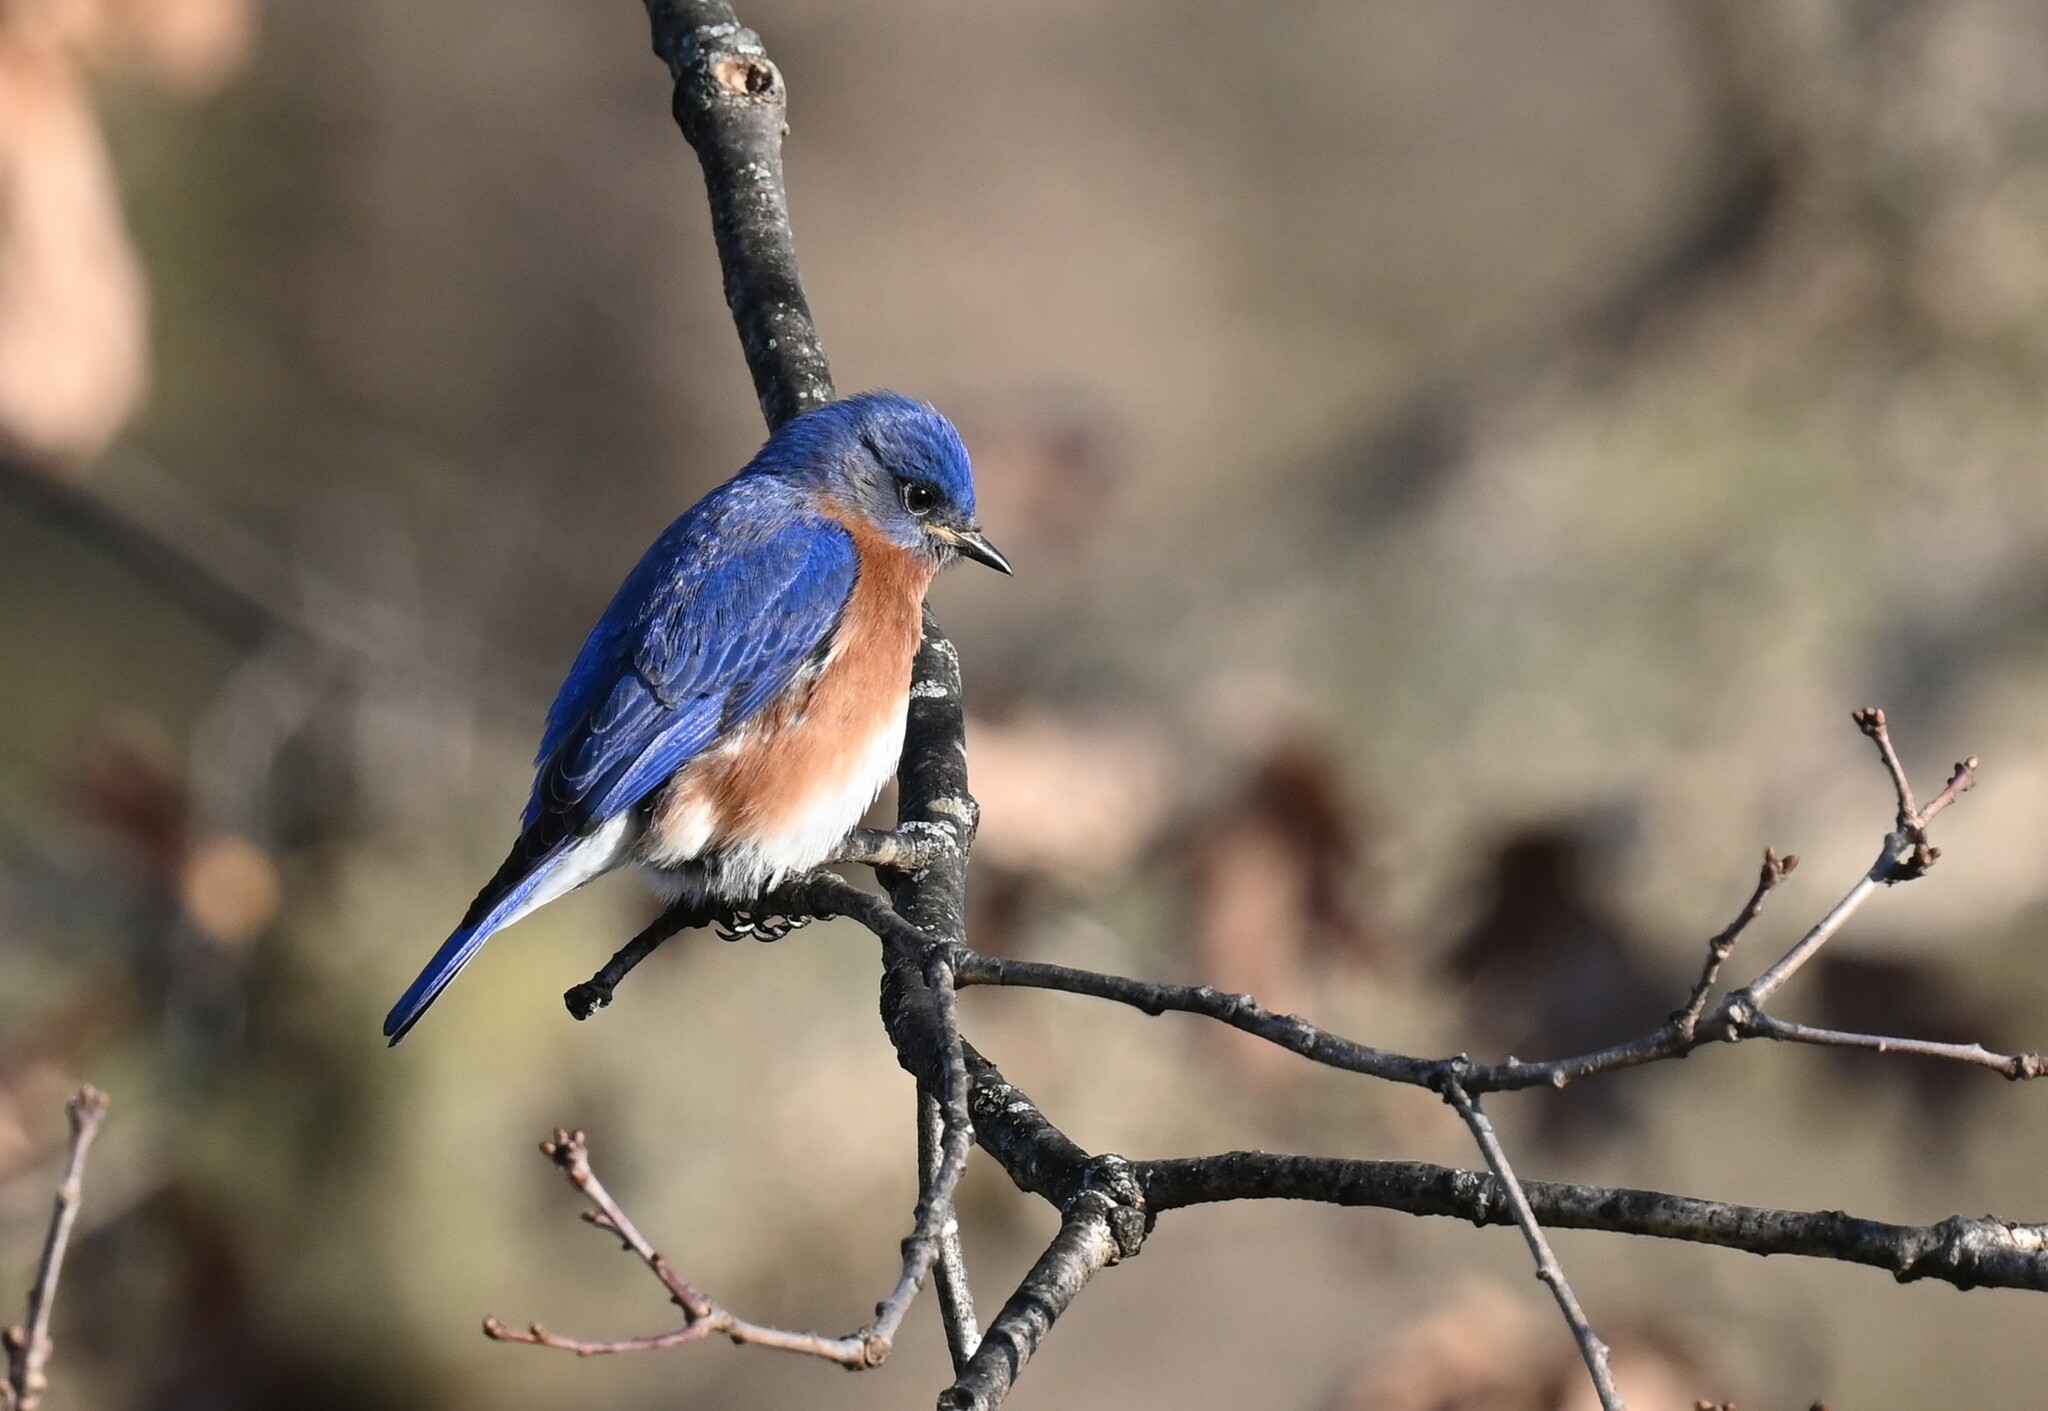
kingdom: Animalia
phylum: Chordata
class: Aves
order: Passeriformes
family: Turdidae
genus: Sialia
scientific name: Sialia sialis
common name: Eastern bluebird
